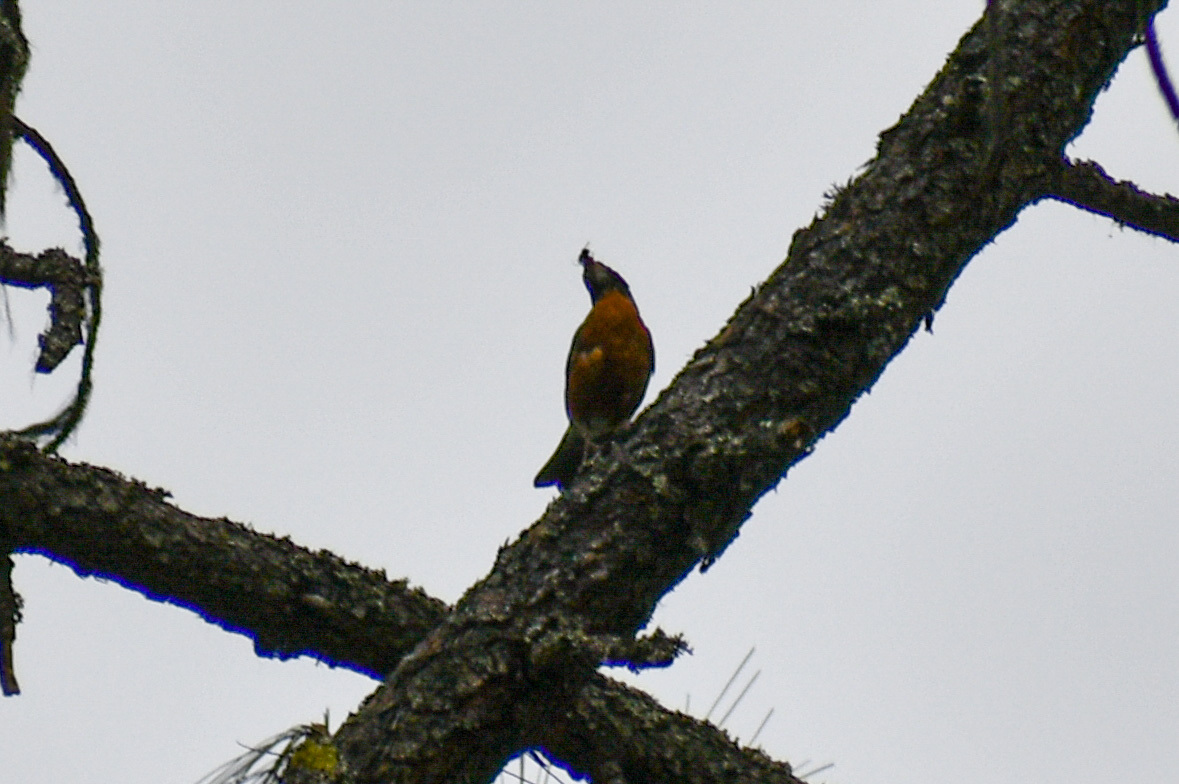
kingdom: Animalia
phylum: Chordata
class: Aves
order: Passeriformes
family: Turdidae
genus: Turdus
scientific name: Turdus migratorius
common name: American robin
